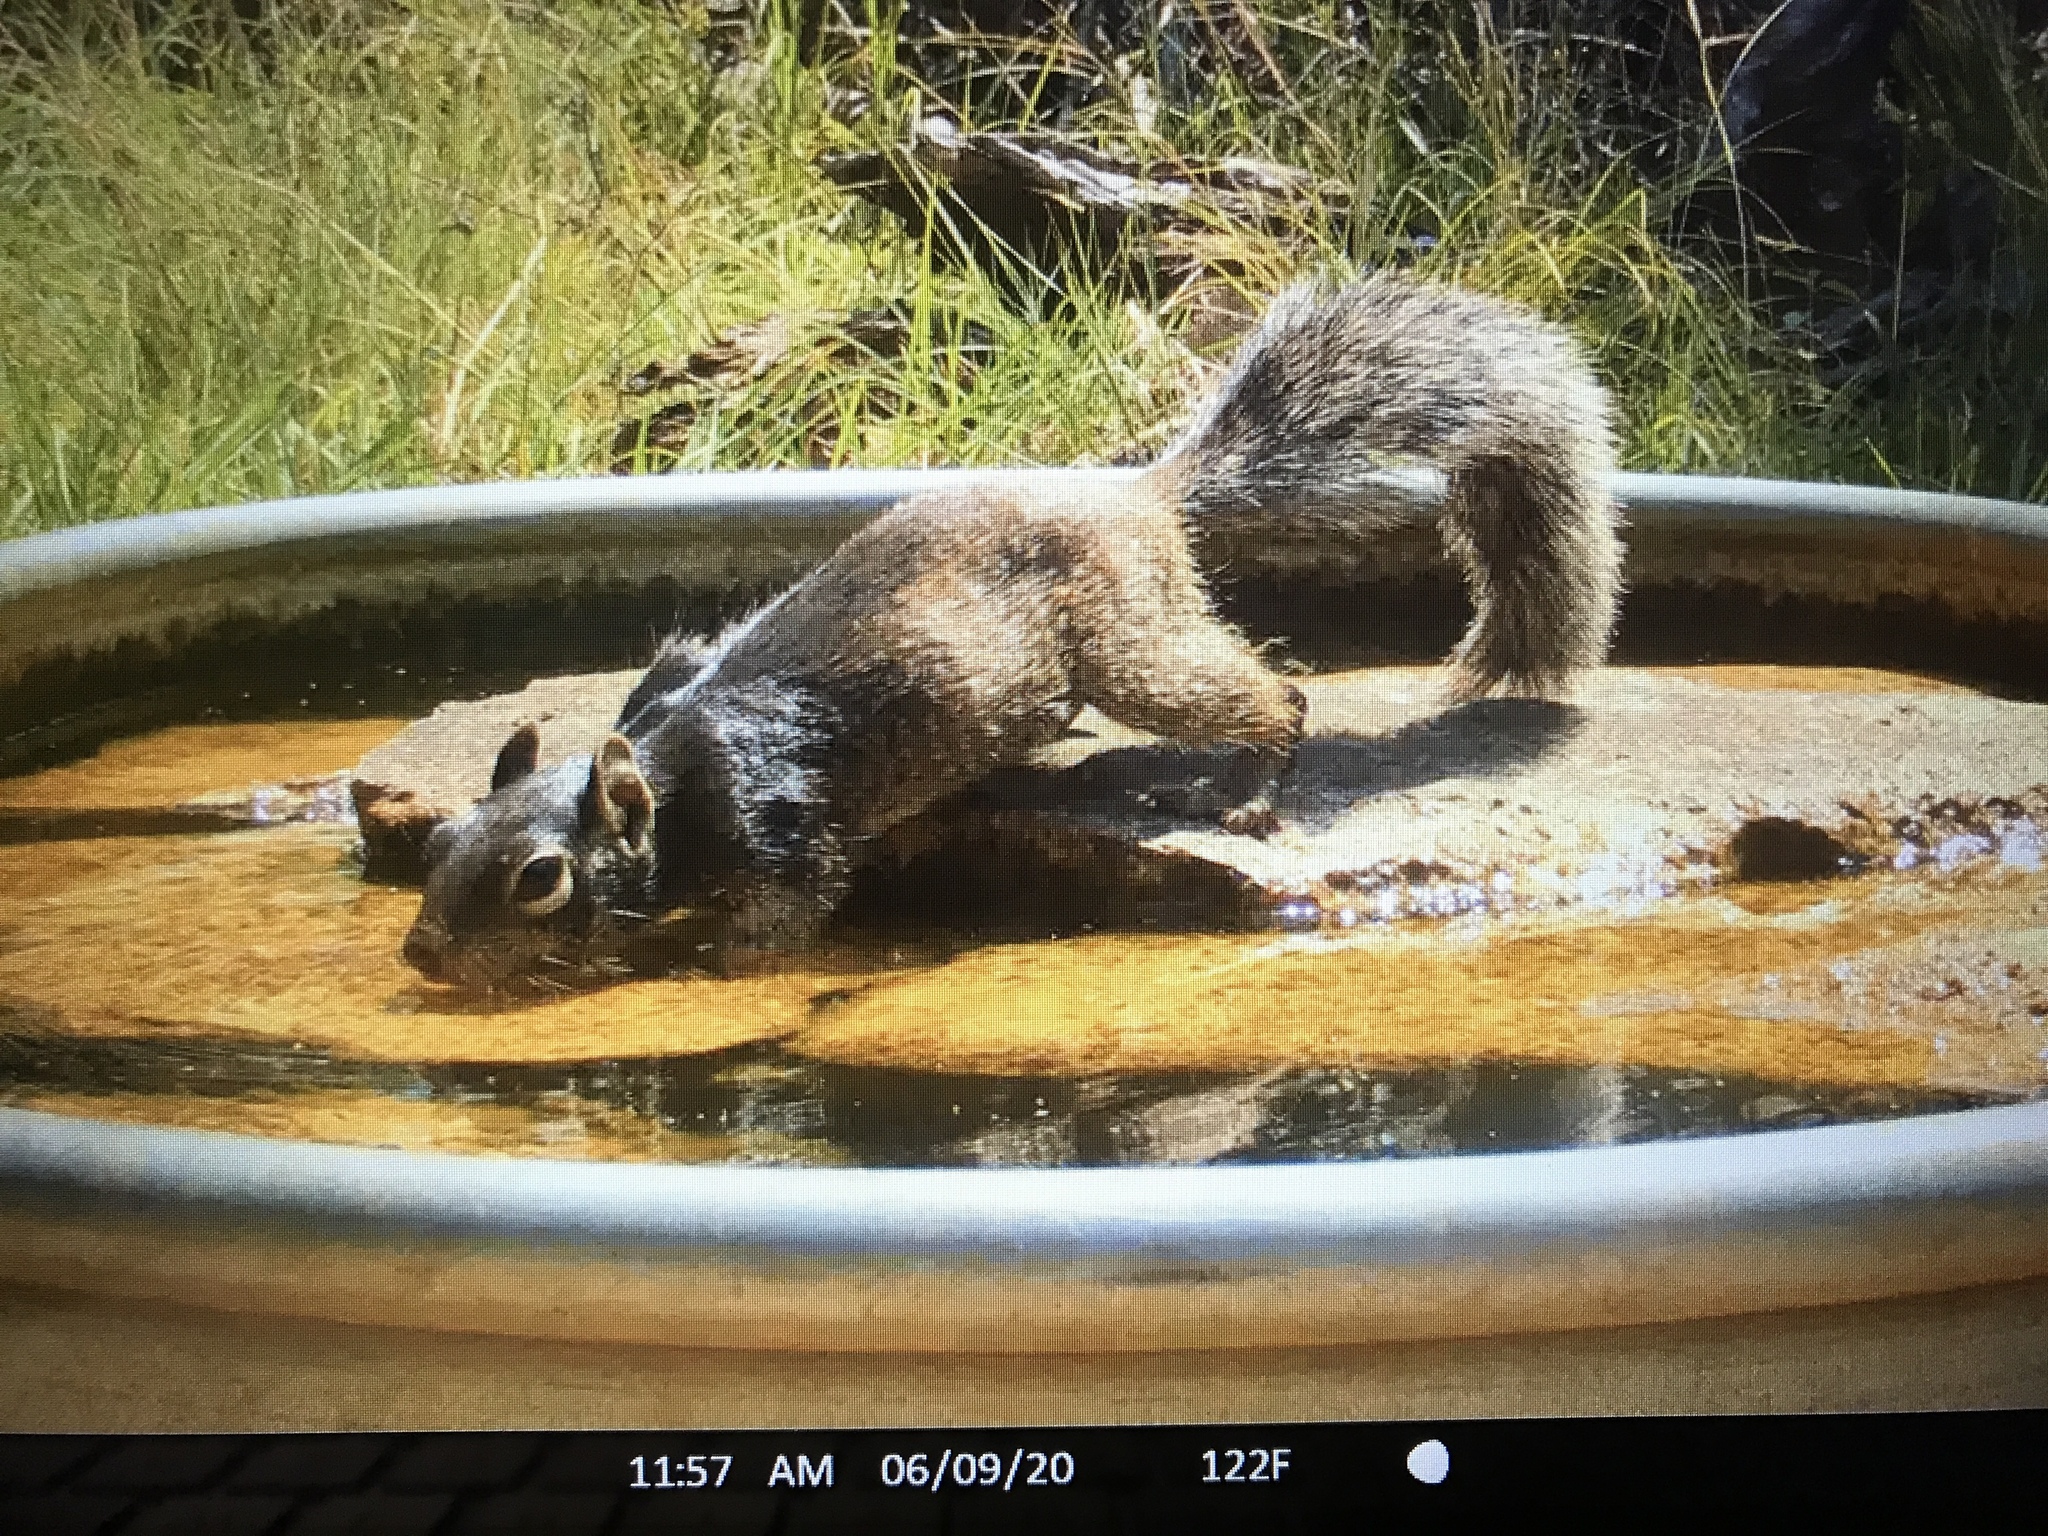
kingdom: Animalia
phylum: Chordata
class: Mammalia
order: Rodentia
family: Sciuridae
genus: Otospermophilus
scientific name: Otospermophilus variegatus
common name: Rock squirrel
